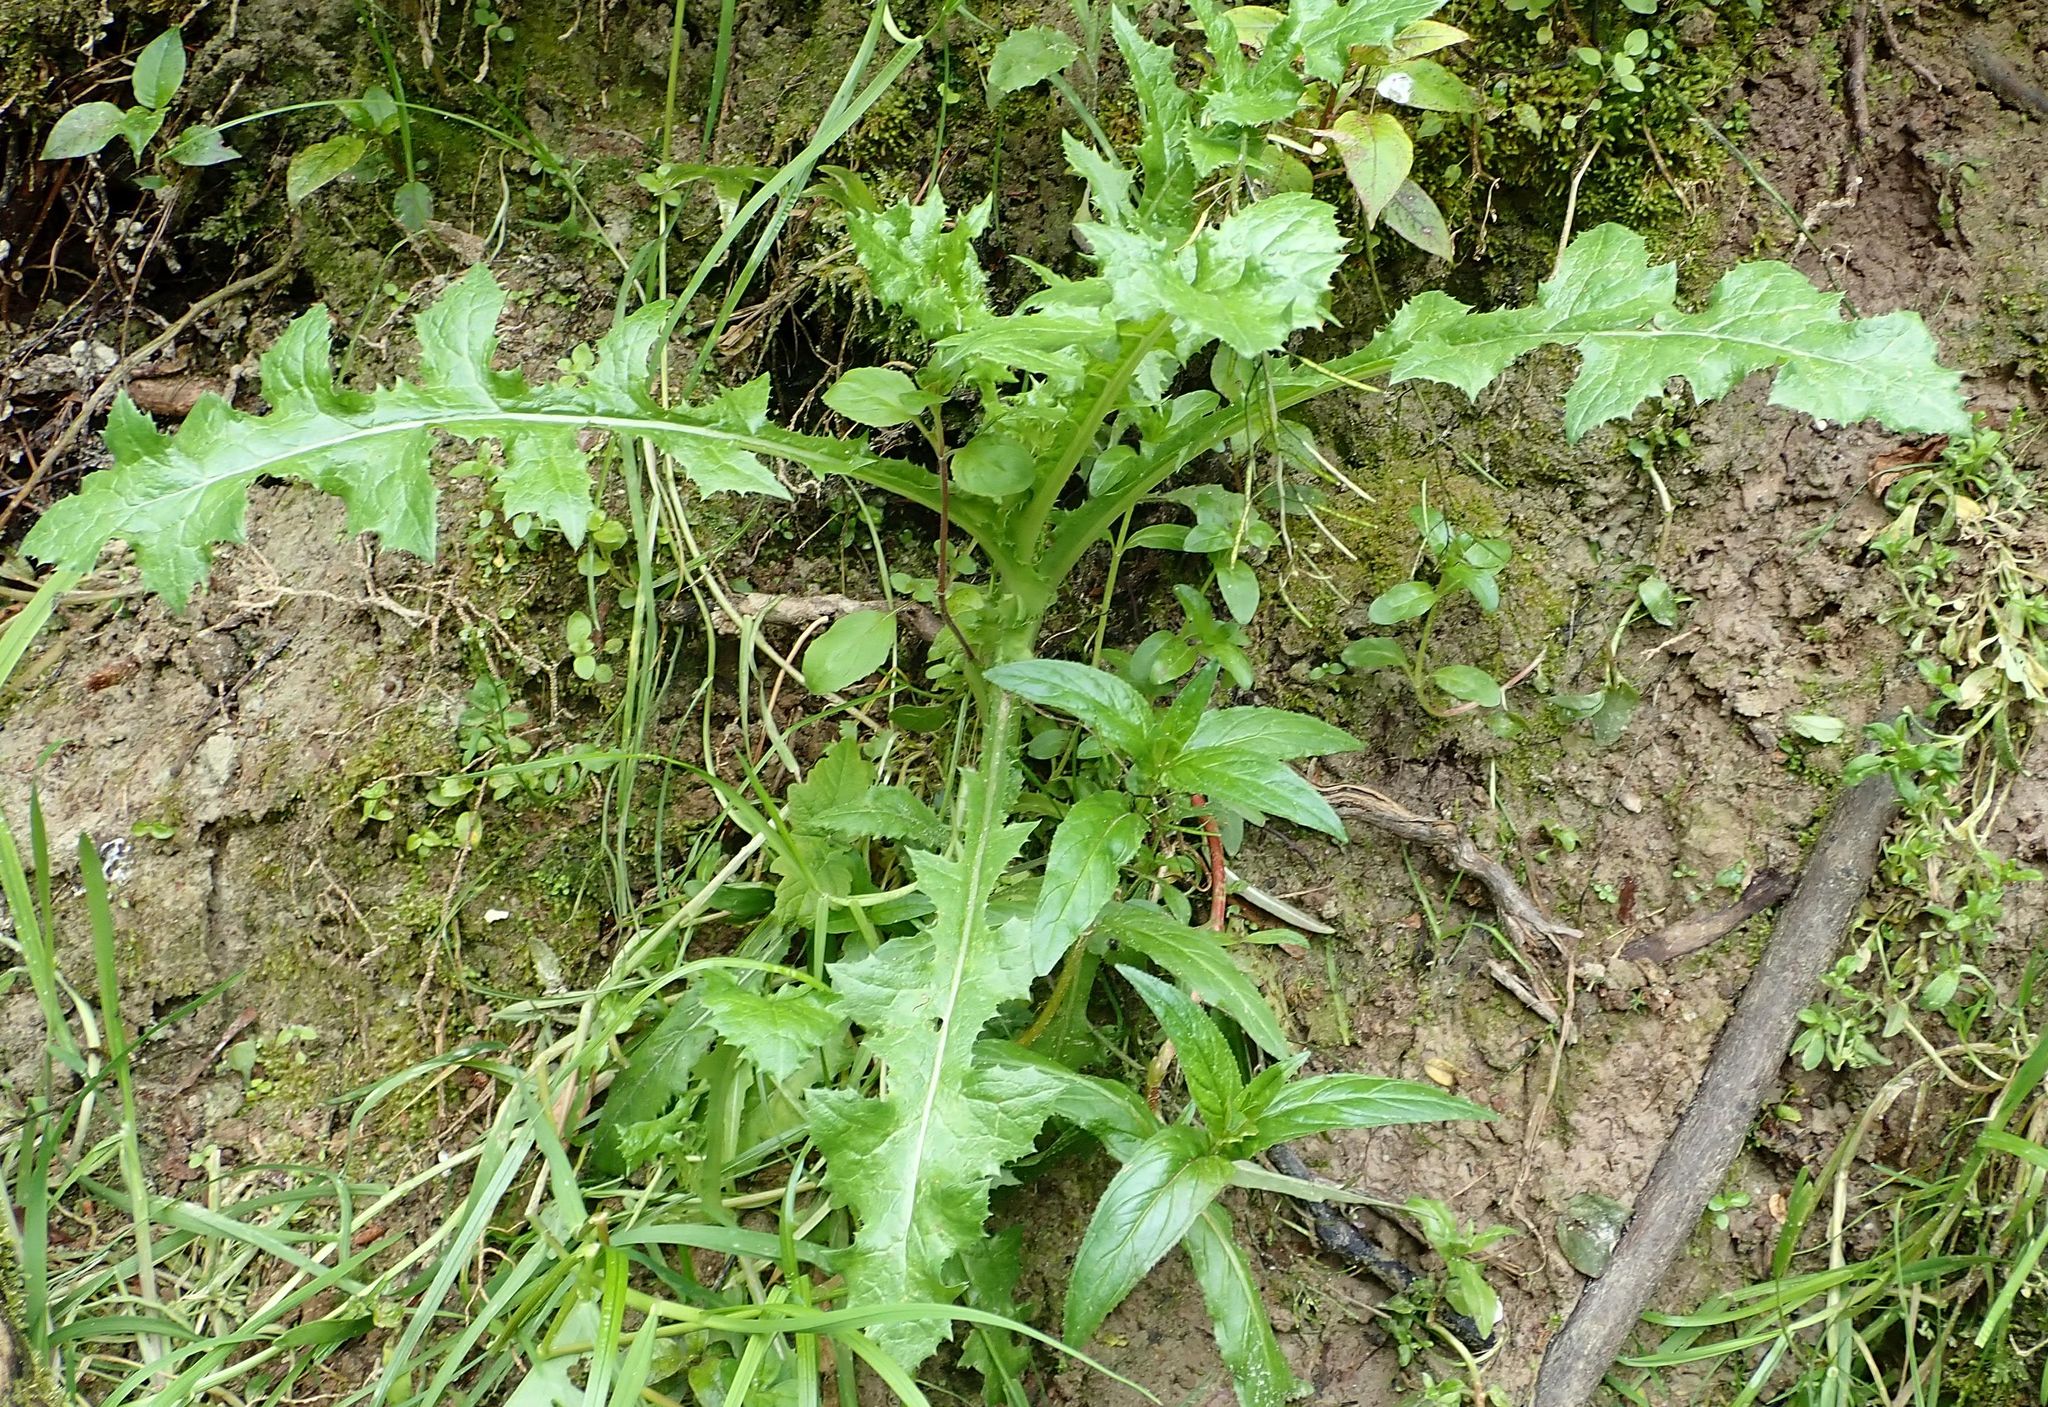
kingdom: Plantae
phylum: Tracheophyta
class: Magnoliopsida
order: Asterales
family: Asteraceae
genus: Sonchus
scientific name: Sonchus asper
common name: Prickly sow-thistle
